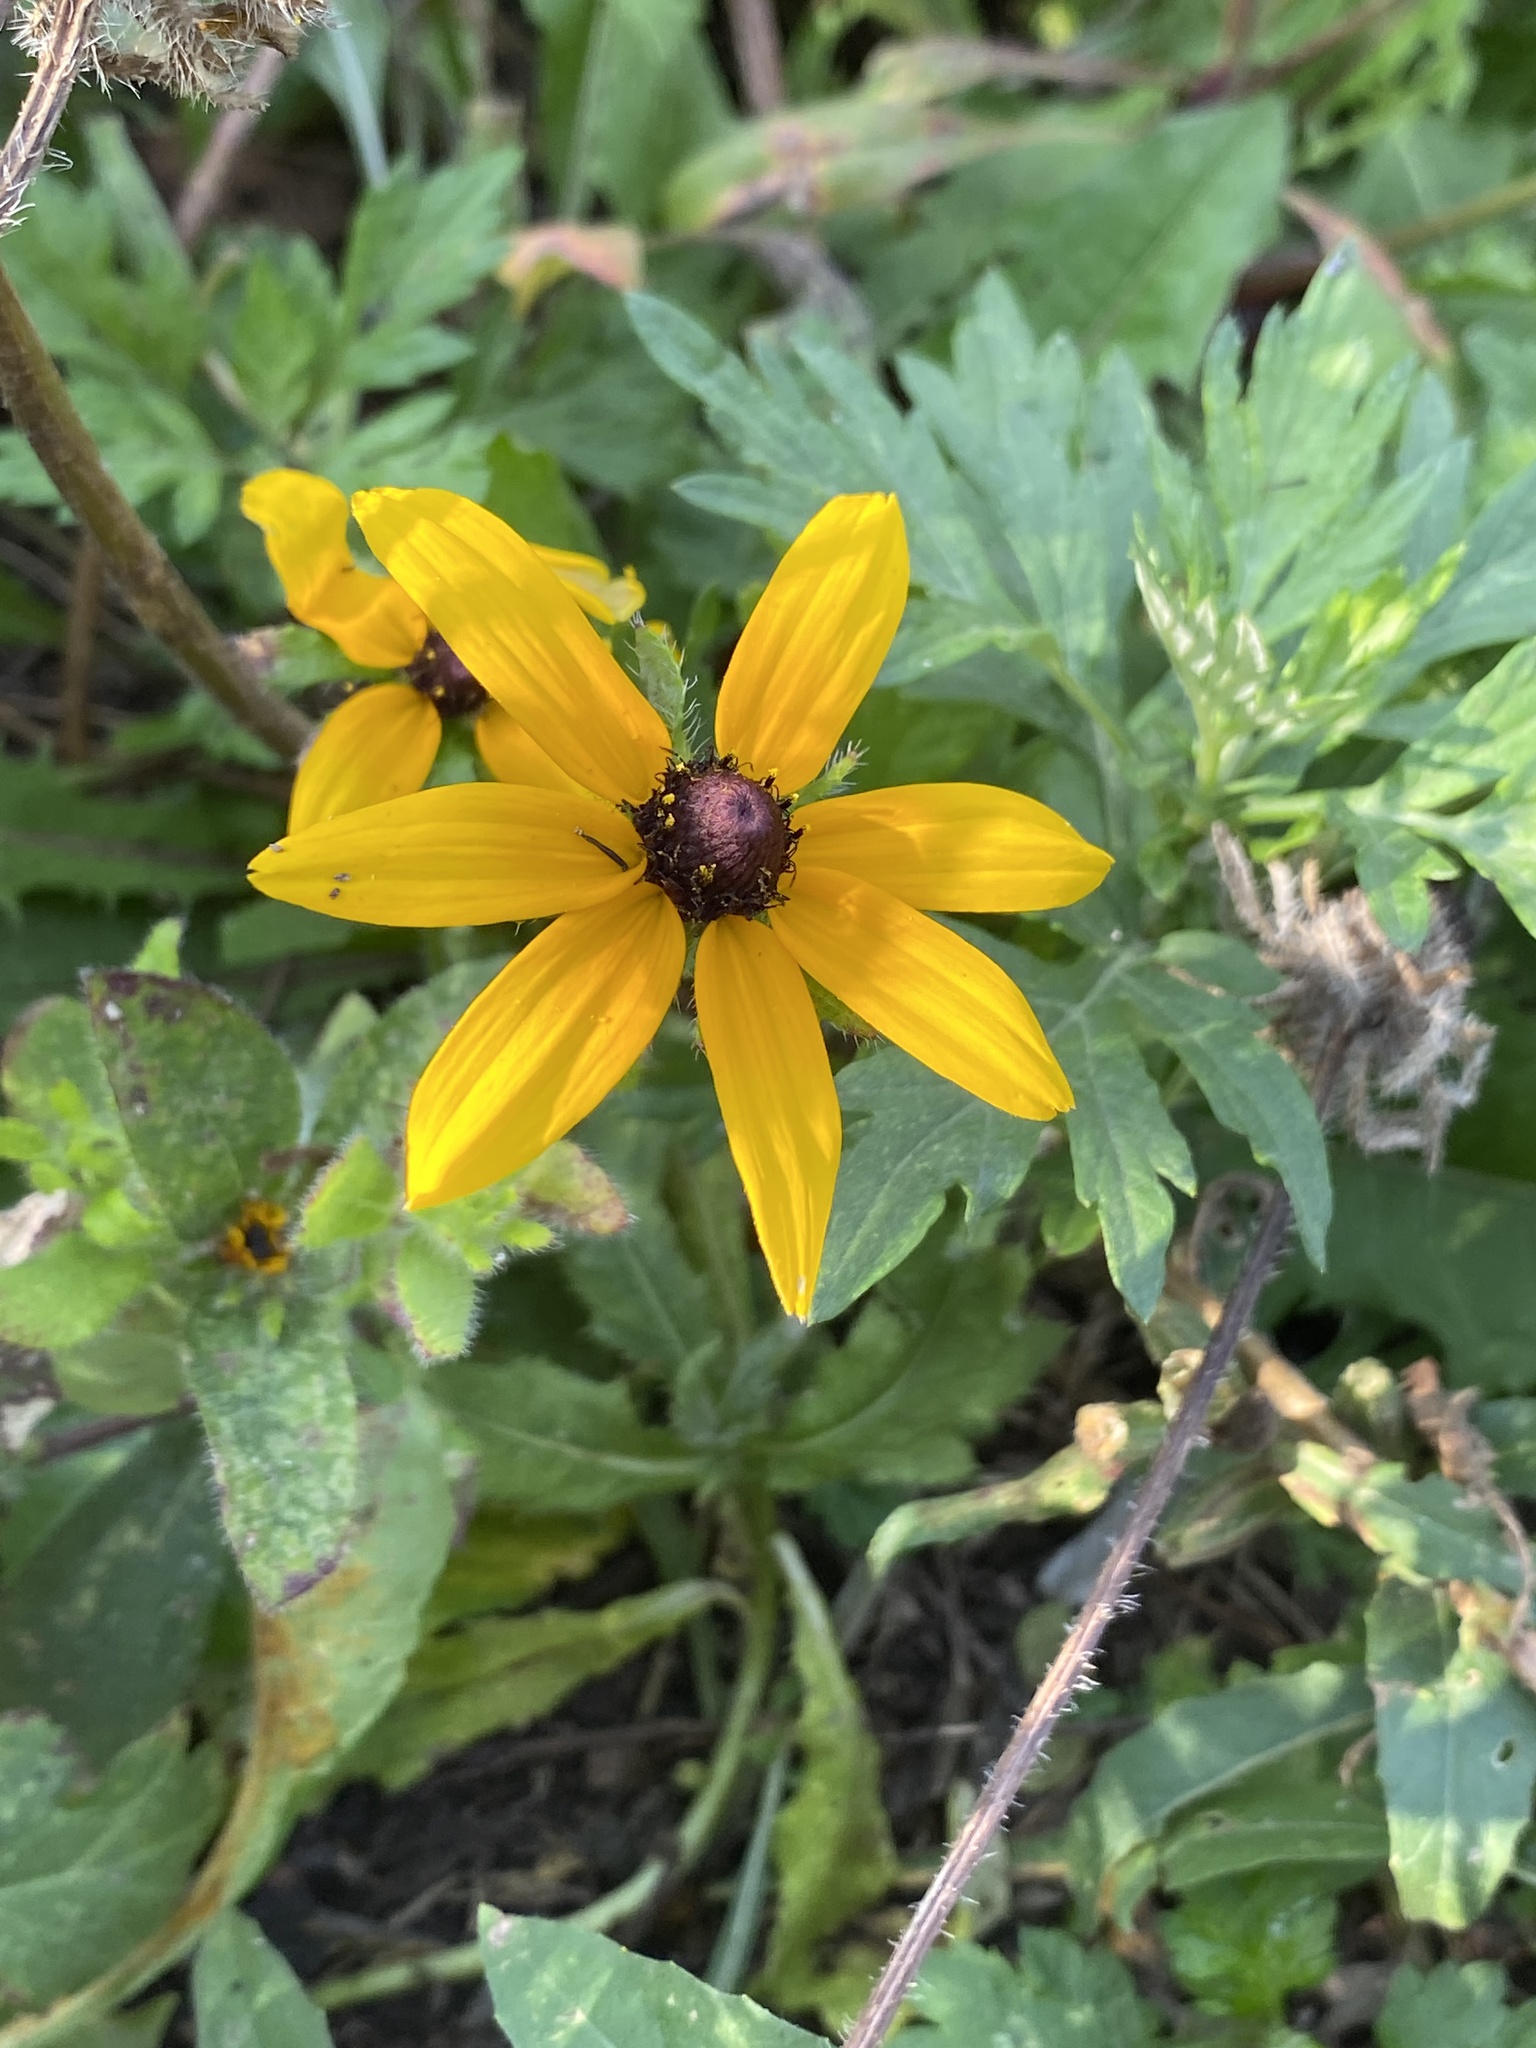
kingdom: Plantae
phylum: Tracheophyta
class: Magnoliopsida
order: Asterales
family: Asteraceae
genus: Rudbeckia
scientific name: Rudbeckia hirta
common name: Black-eyed-susan
